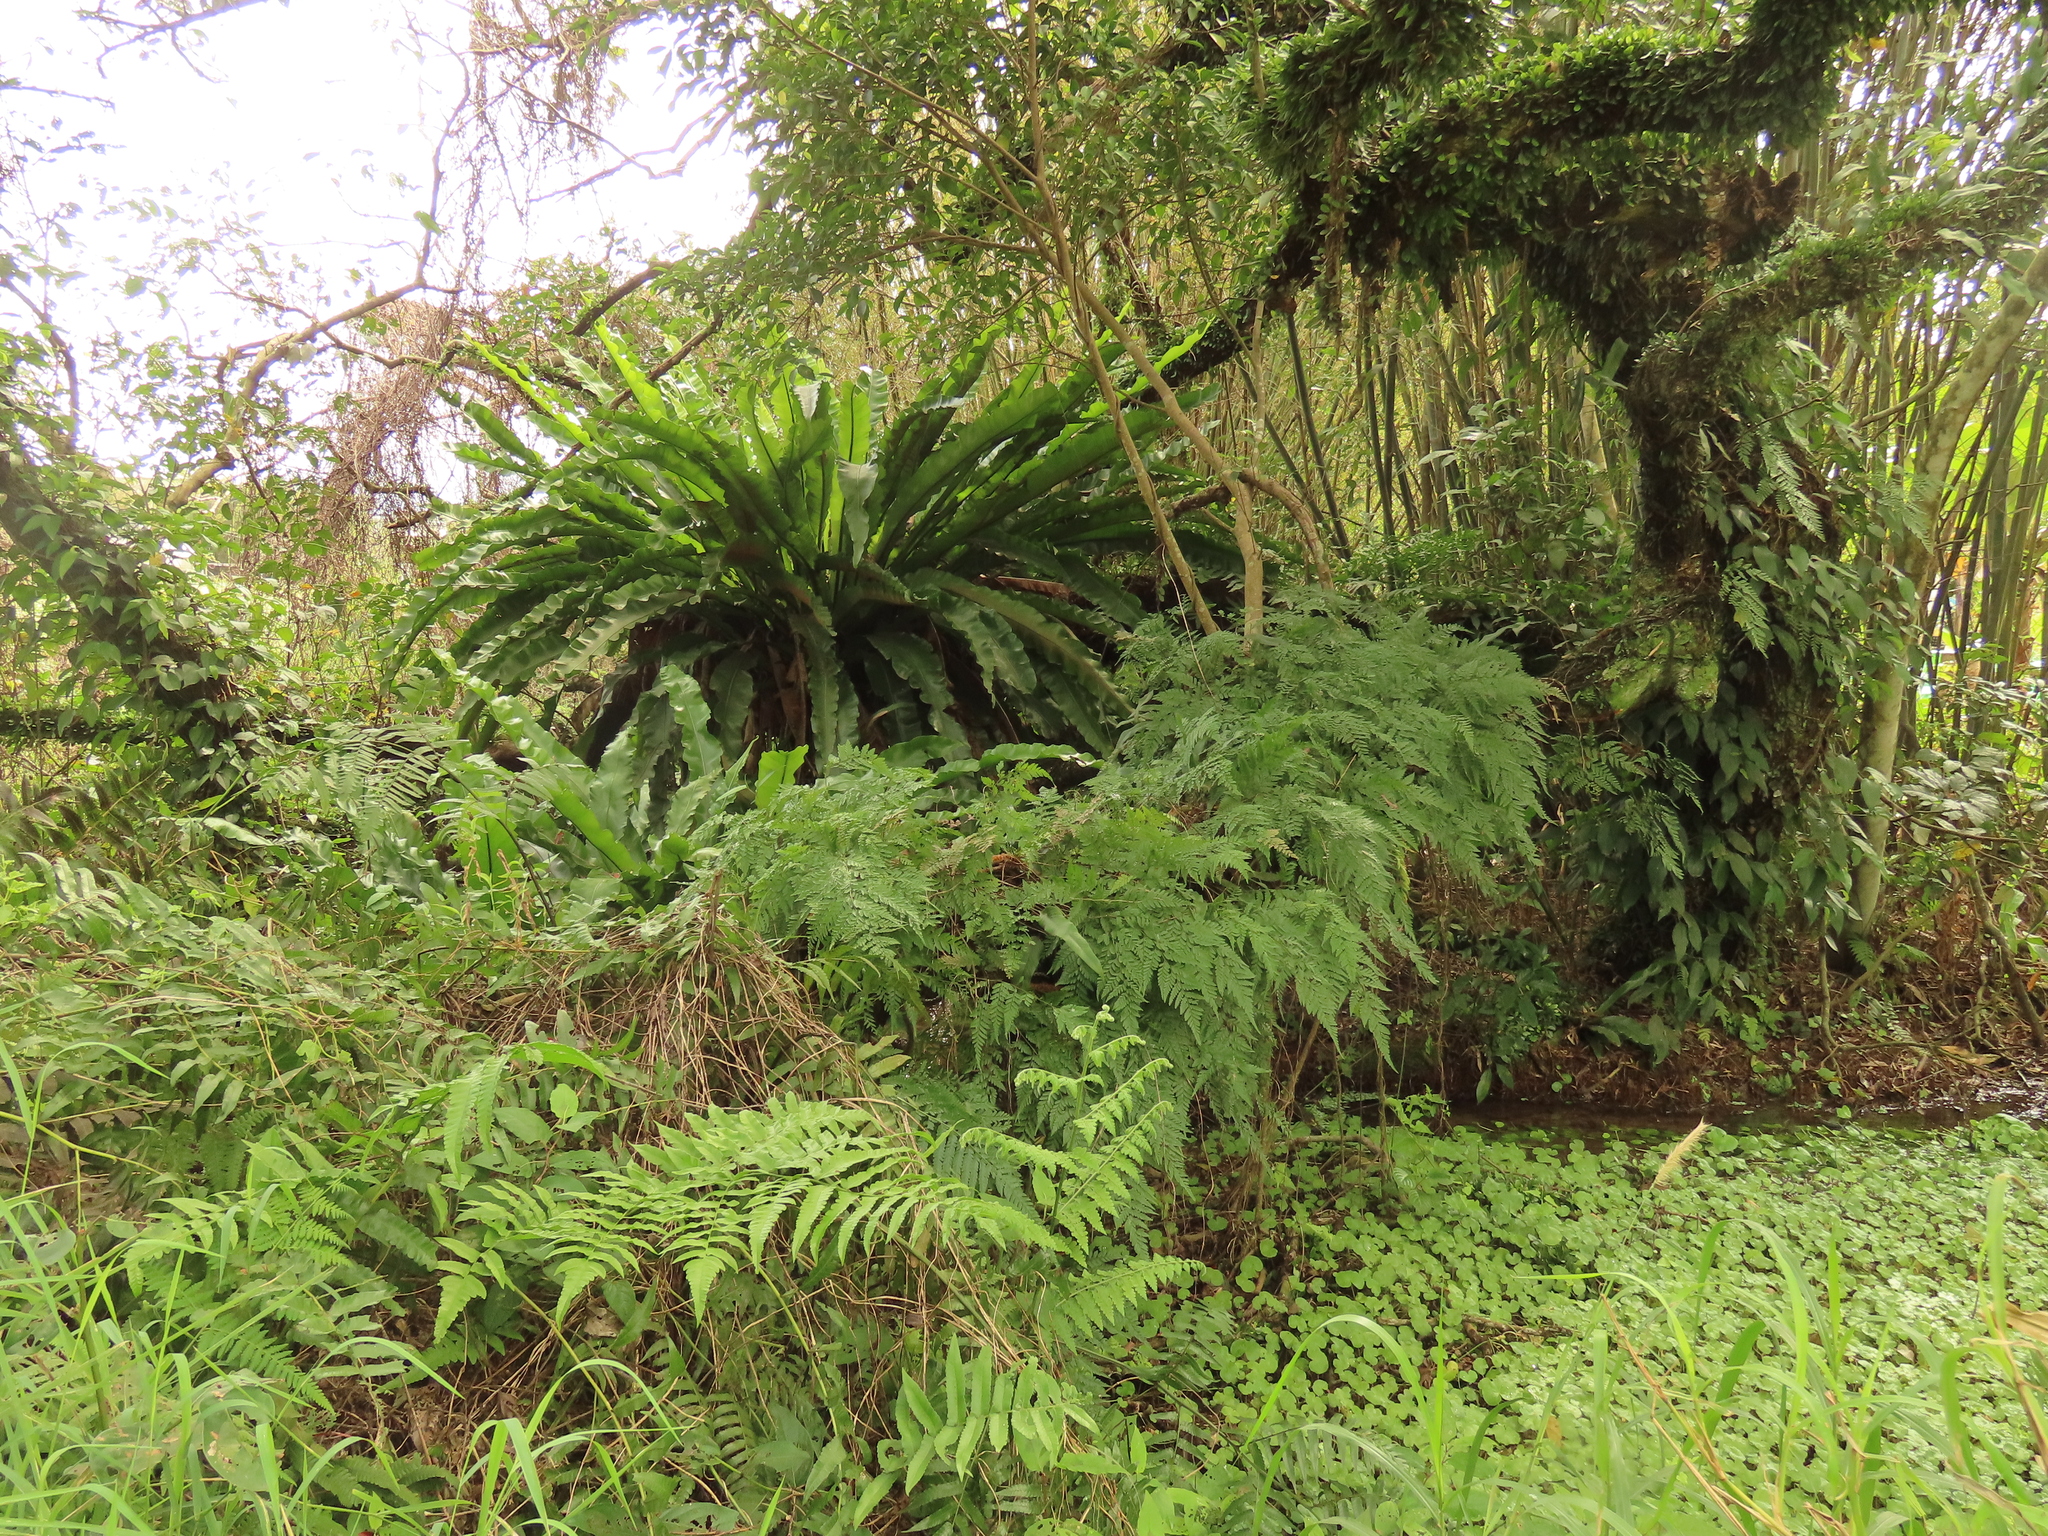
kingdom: Plantae
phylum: Tracheophyta
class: Polypodiopsida
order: Polypodiales
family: Aspleniaceae
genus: Asplenium
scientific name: Asplenium nidus
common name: Bird's-nest fern
